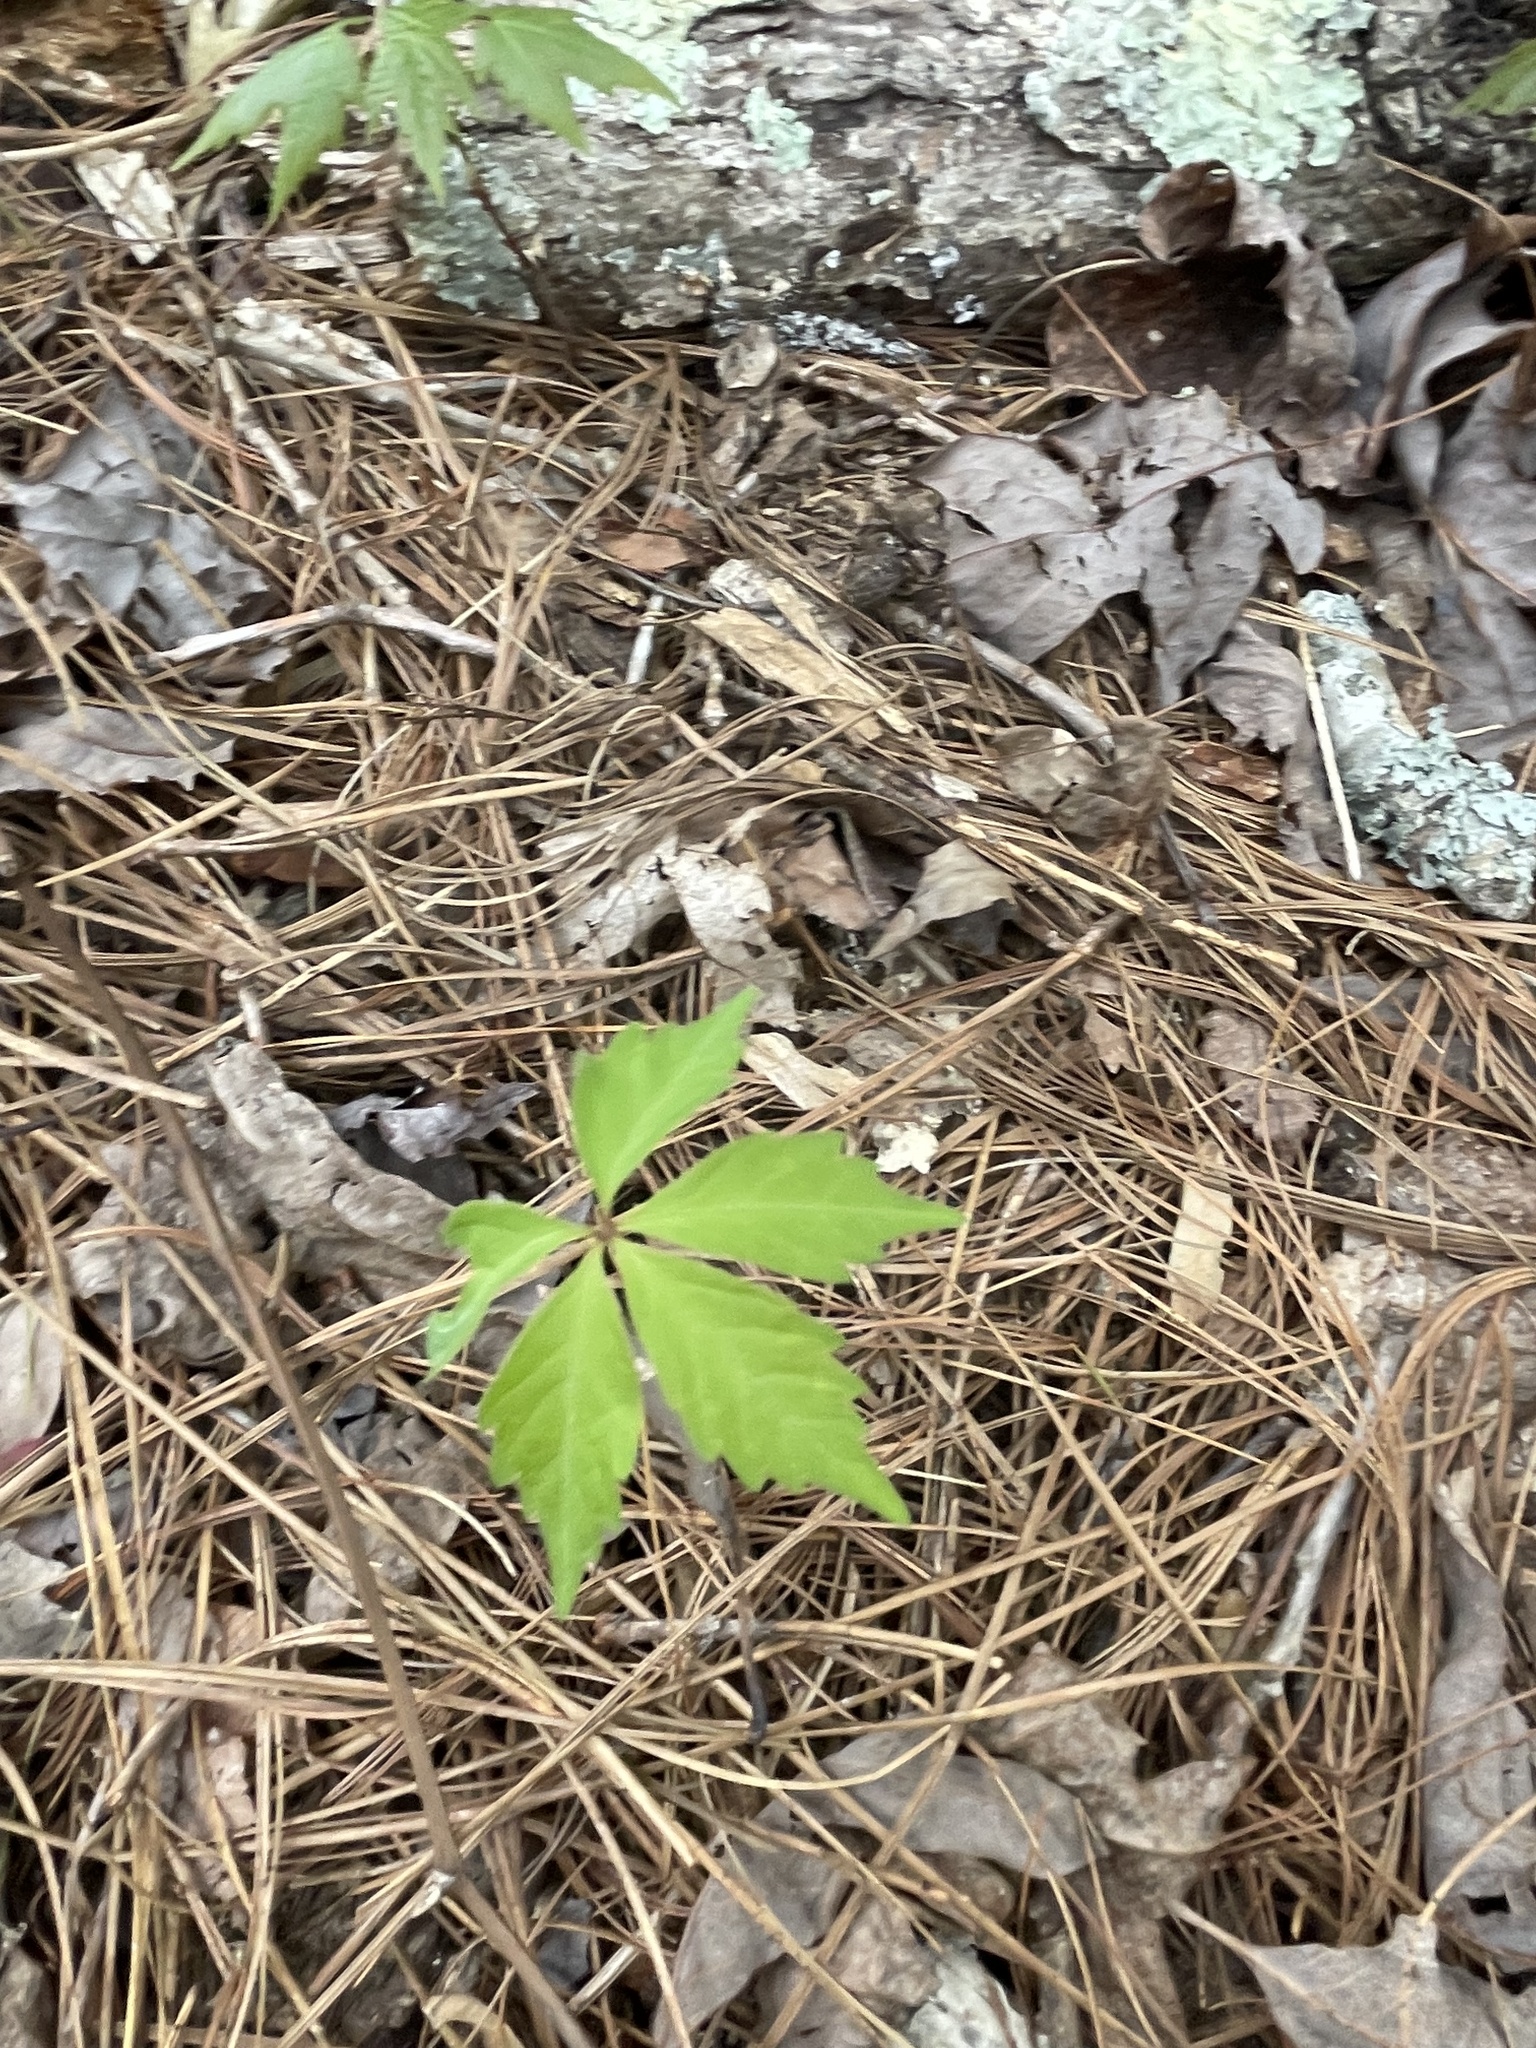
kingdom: Plantae
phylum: Tracheophyta
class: Magnoliopsida
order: Vitales
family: Vitaceae
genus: Parthenocissus
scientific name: Parthenocissus quinquefolia
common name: Virginia-creeper
